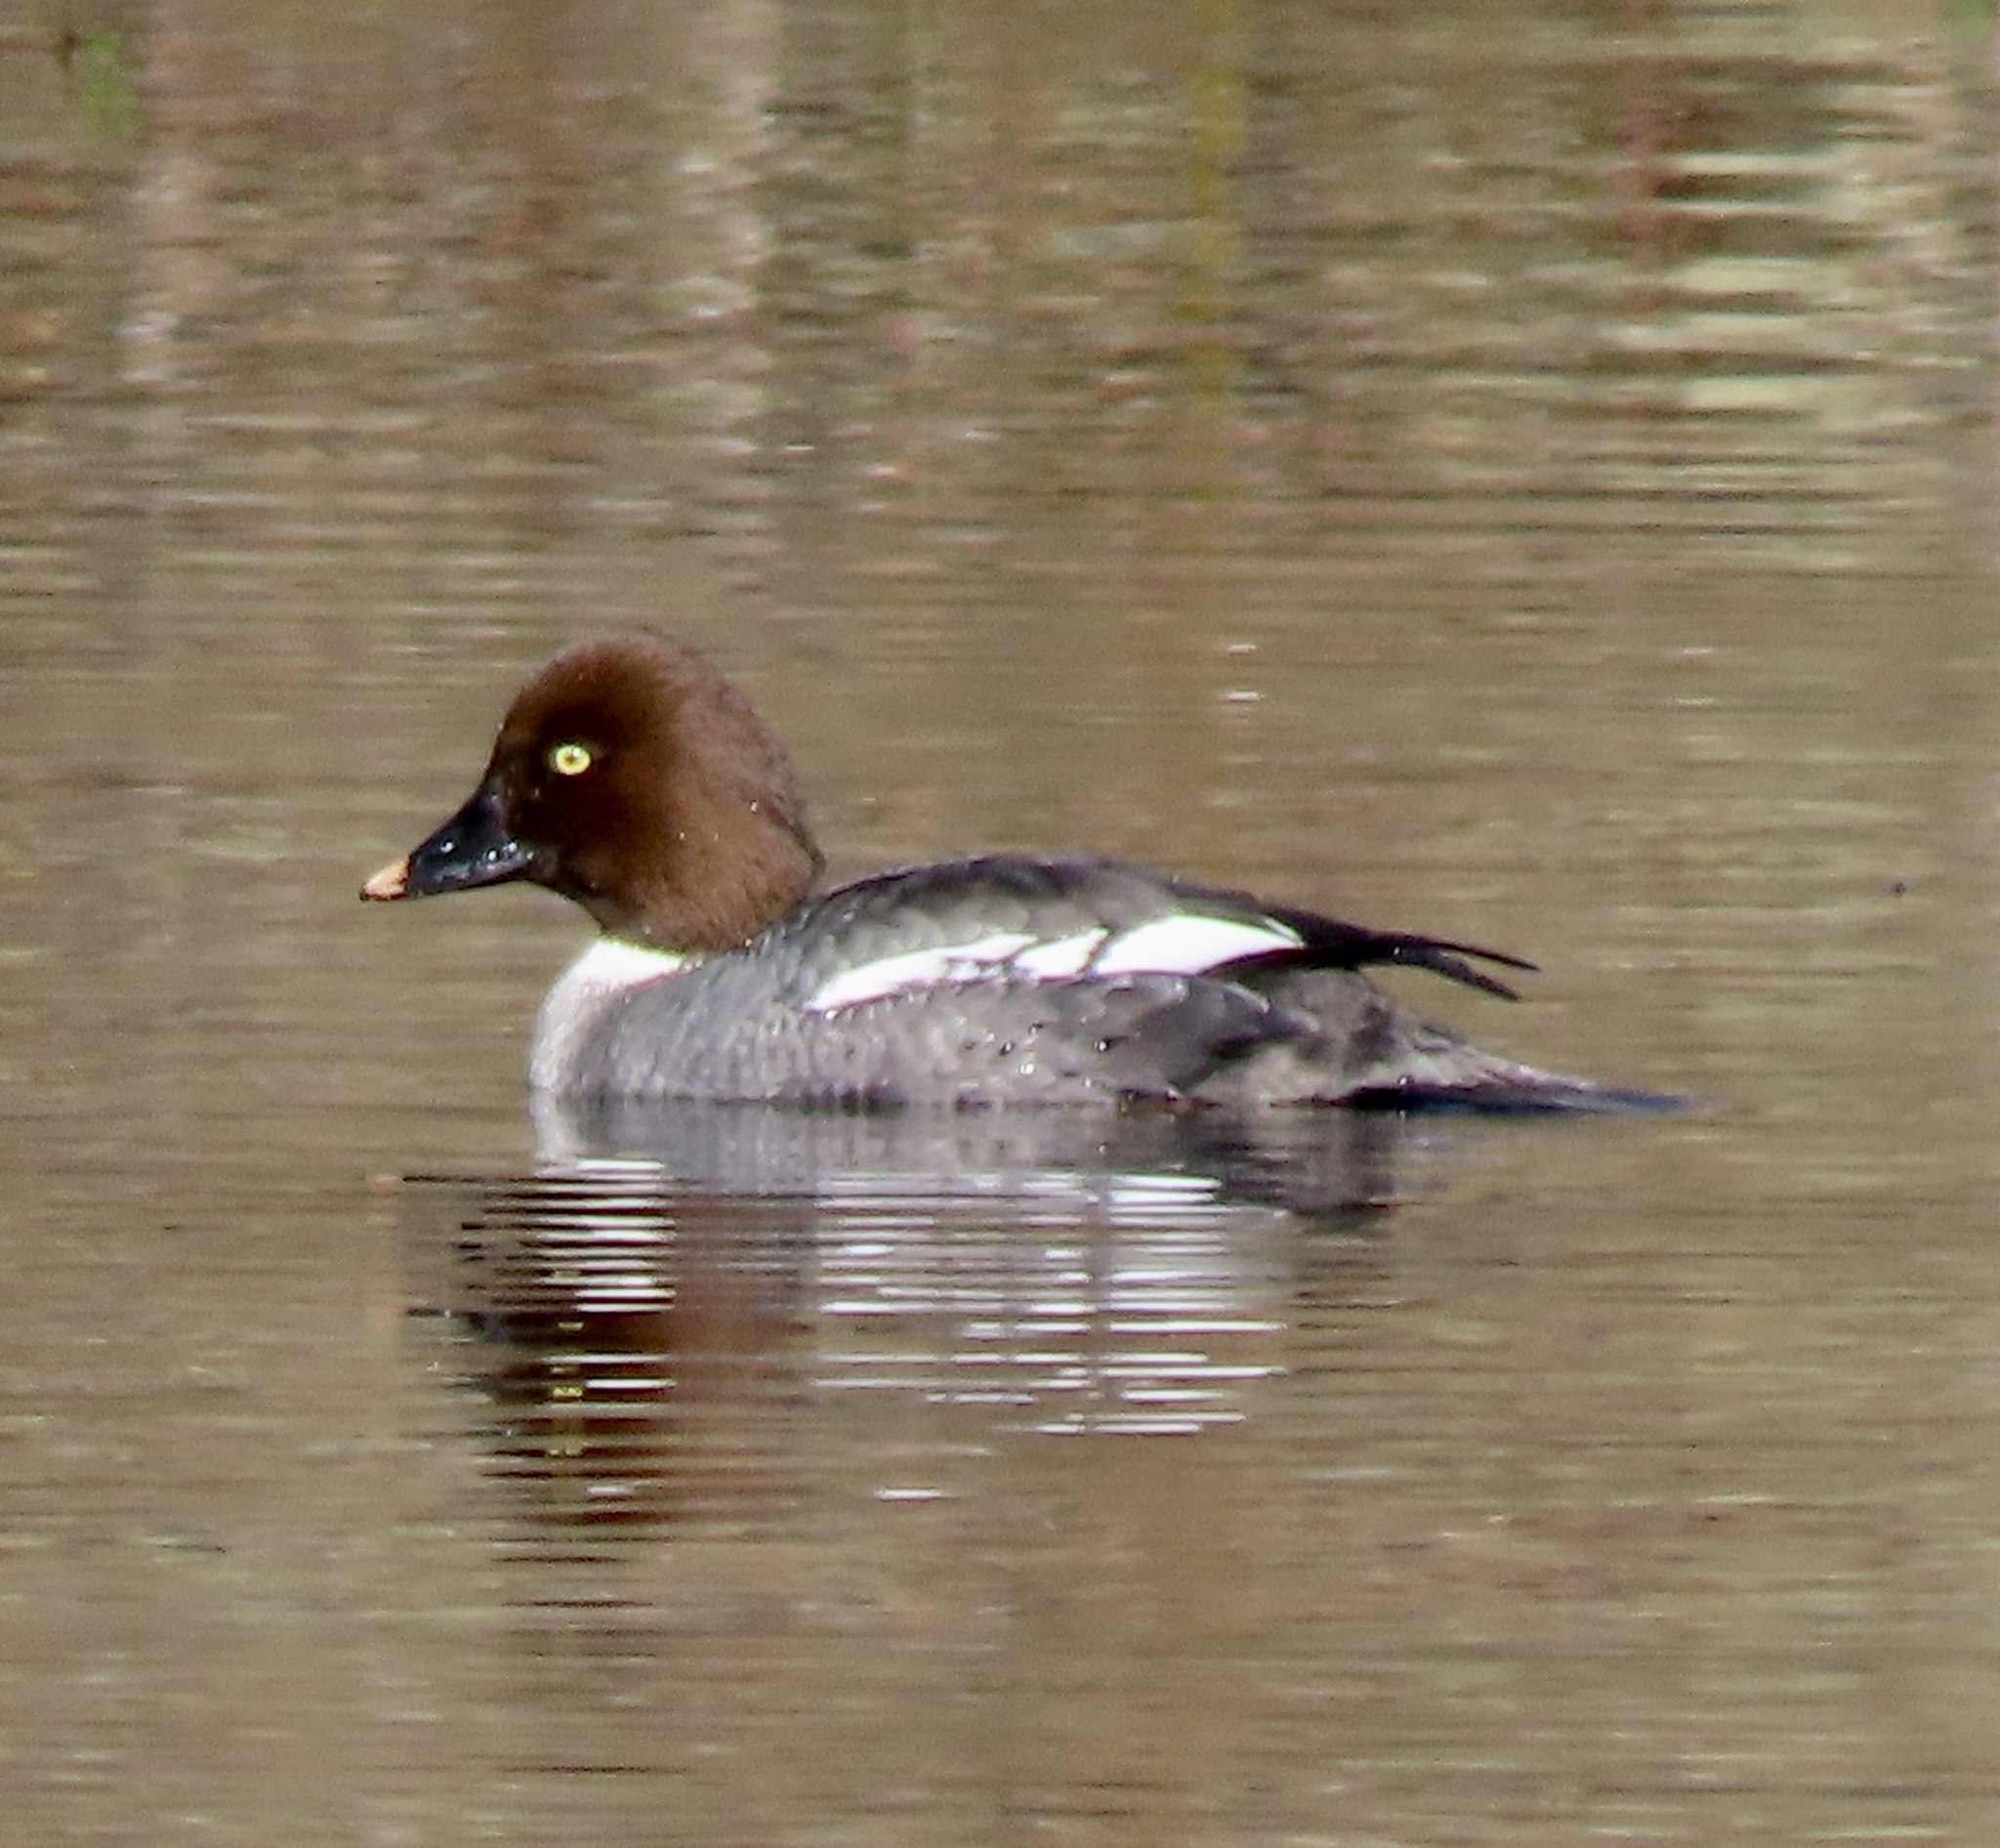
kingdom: Animalia
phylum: Chordata
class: Aves
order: Anseriformes
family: Anatidae
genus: Bucephala
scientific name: Bucephala clangula
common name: Common goldeneye
